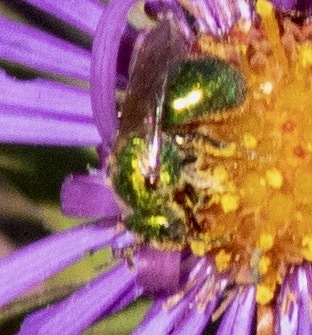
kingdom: Animalia
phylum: Arthropoda
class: Insecta
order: Hymenoptera
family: Halictidae
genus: Augochlorella
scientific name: Augochlorella aurata
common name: Golden sweat bee
